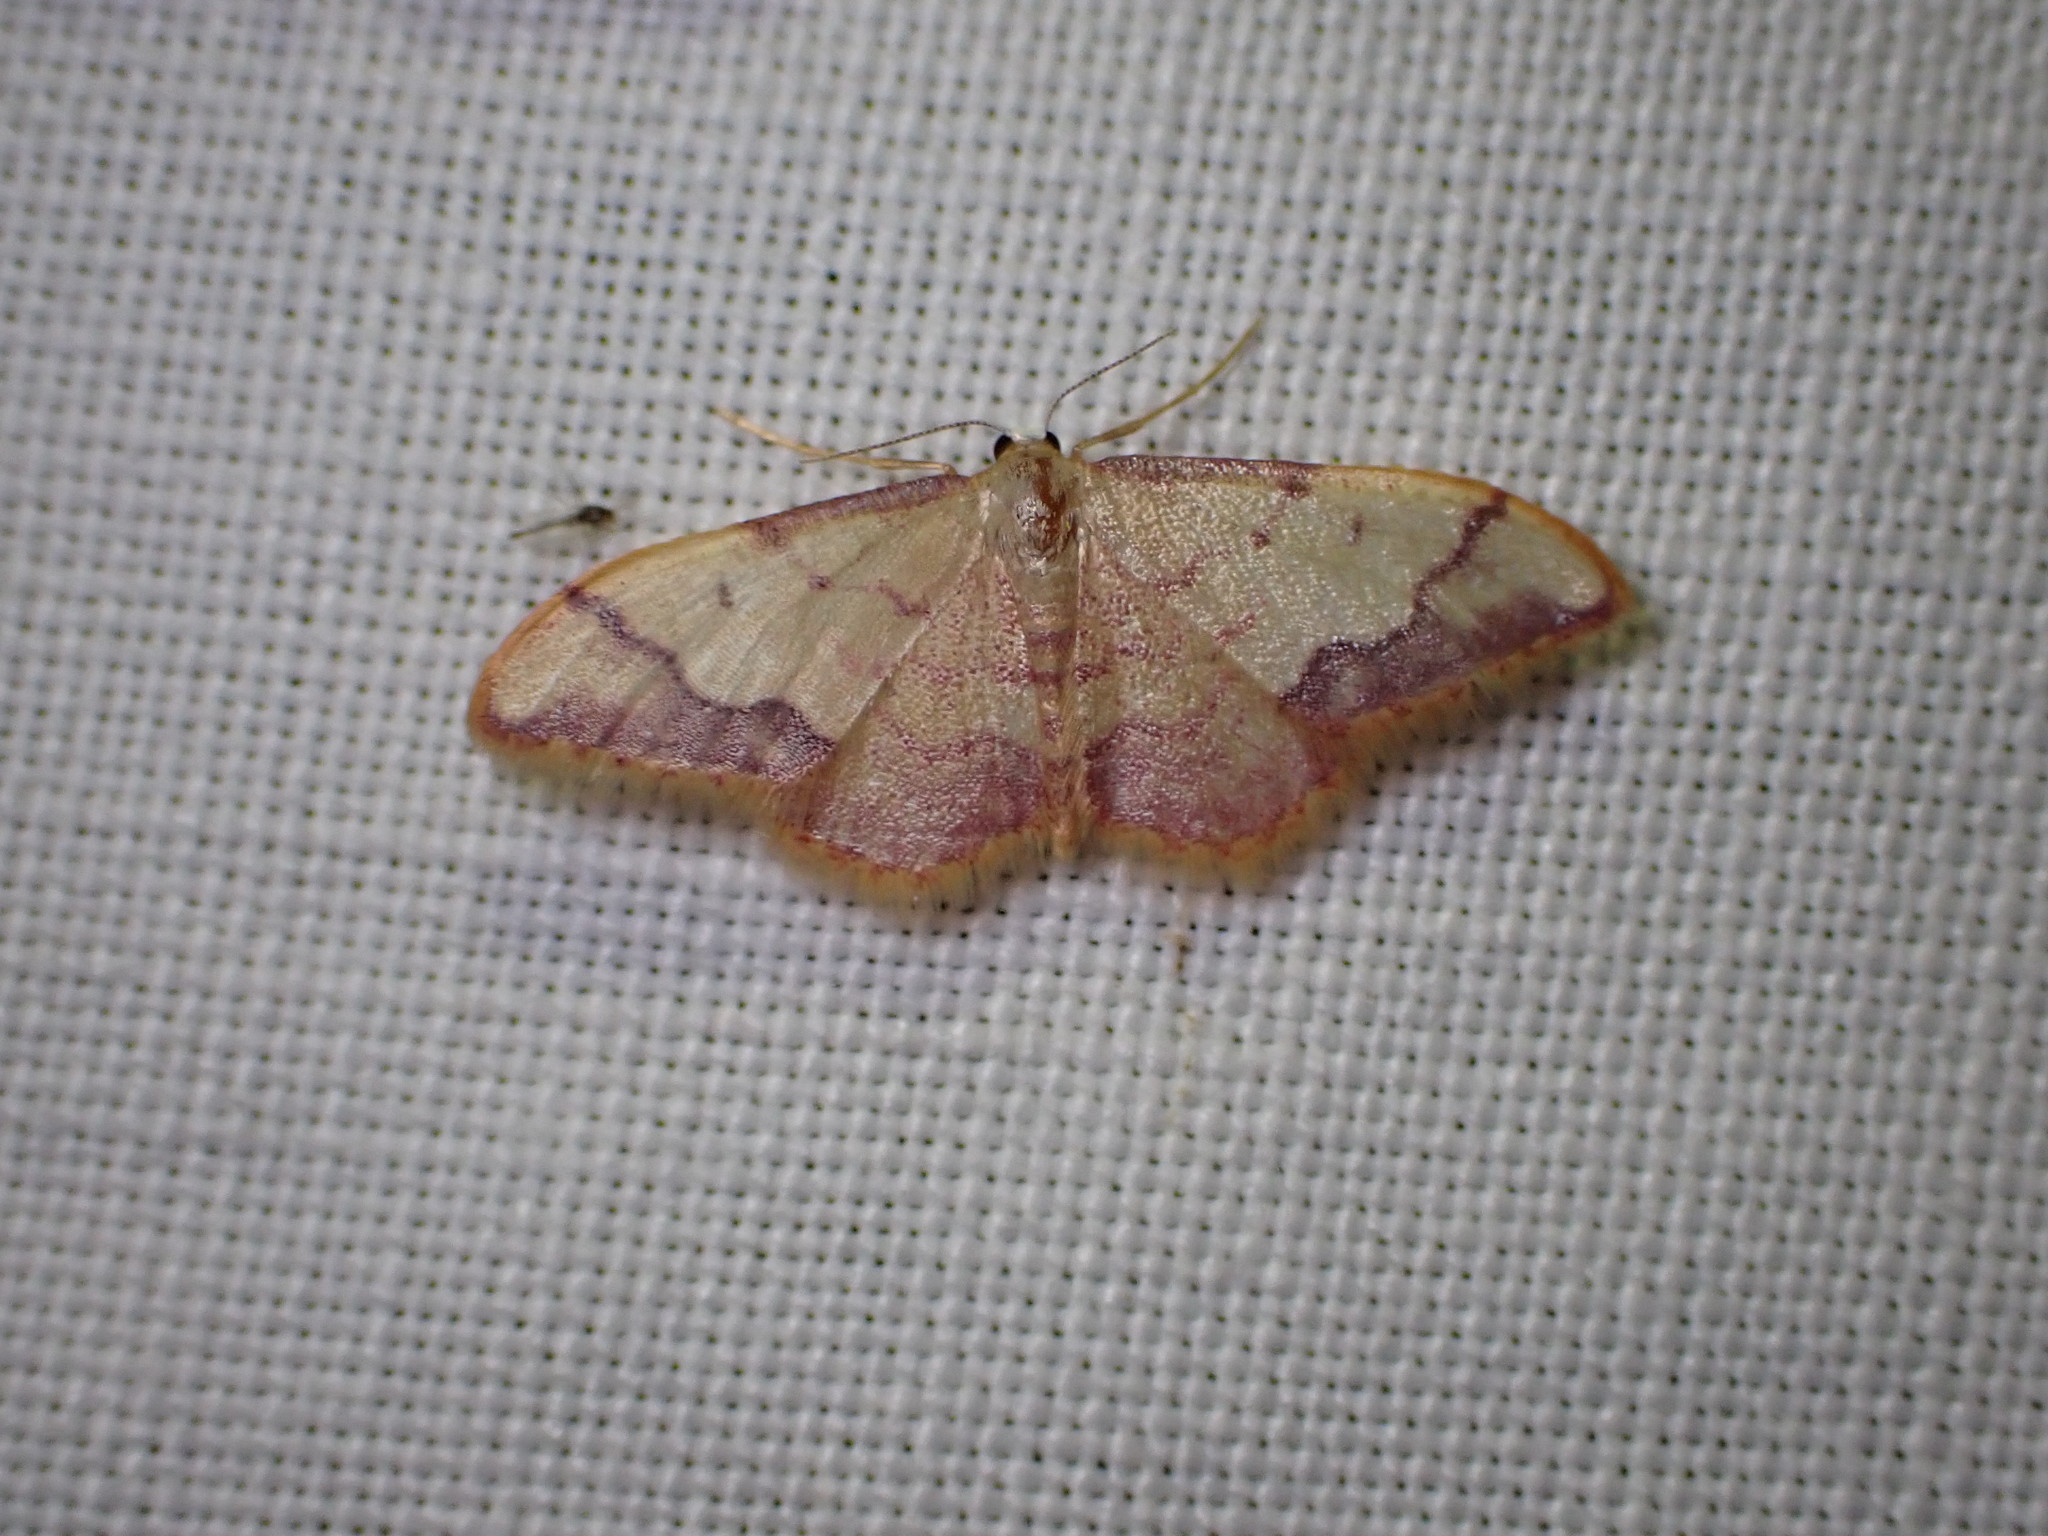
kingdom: Animalia
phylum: Arthropoda
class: Insecta
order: Lepidoptera
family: Geometridae
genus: Idaea
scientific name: Idaea ostrinaria
